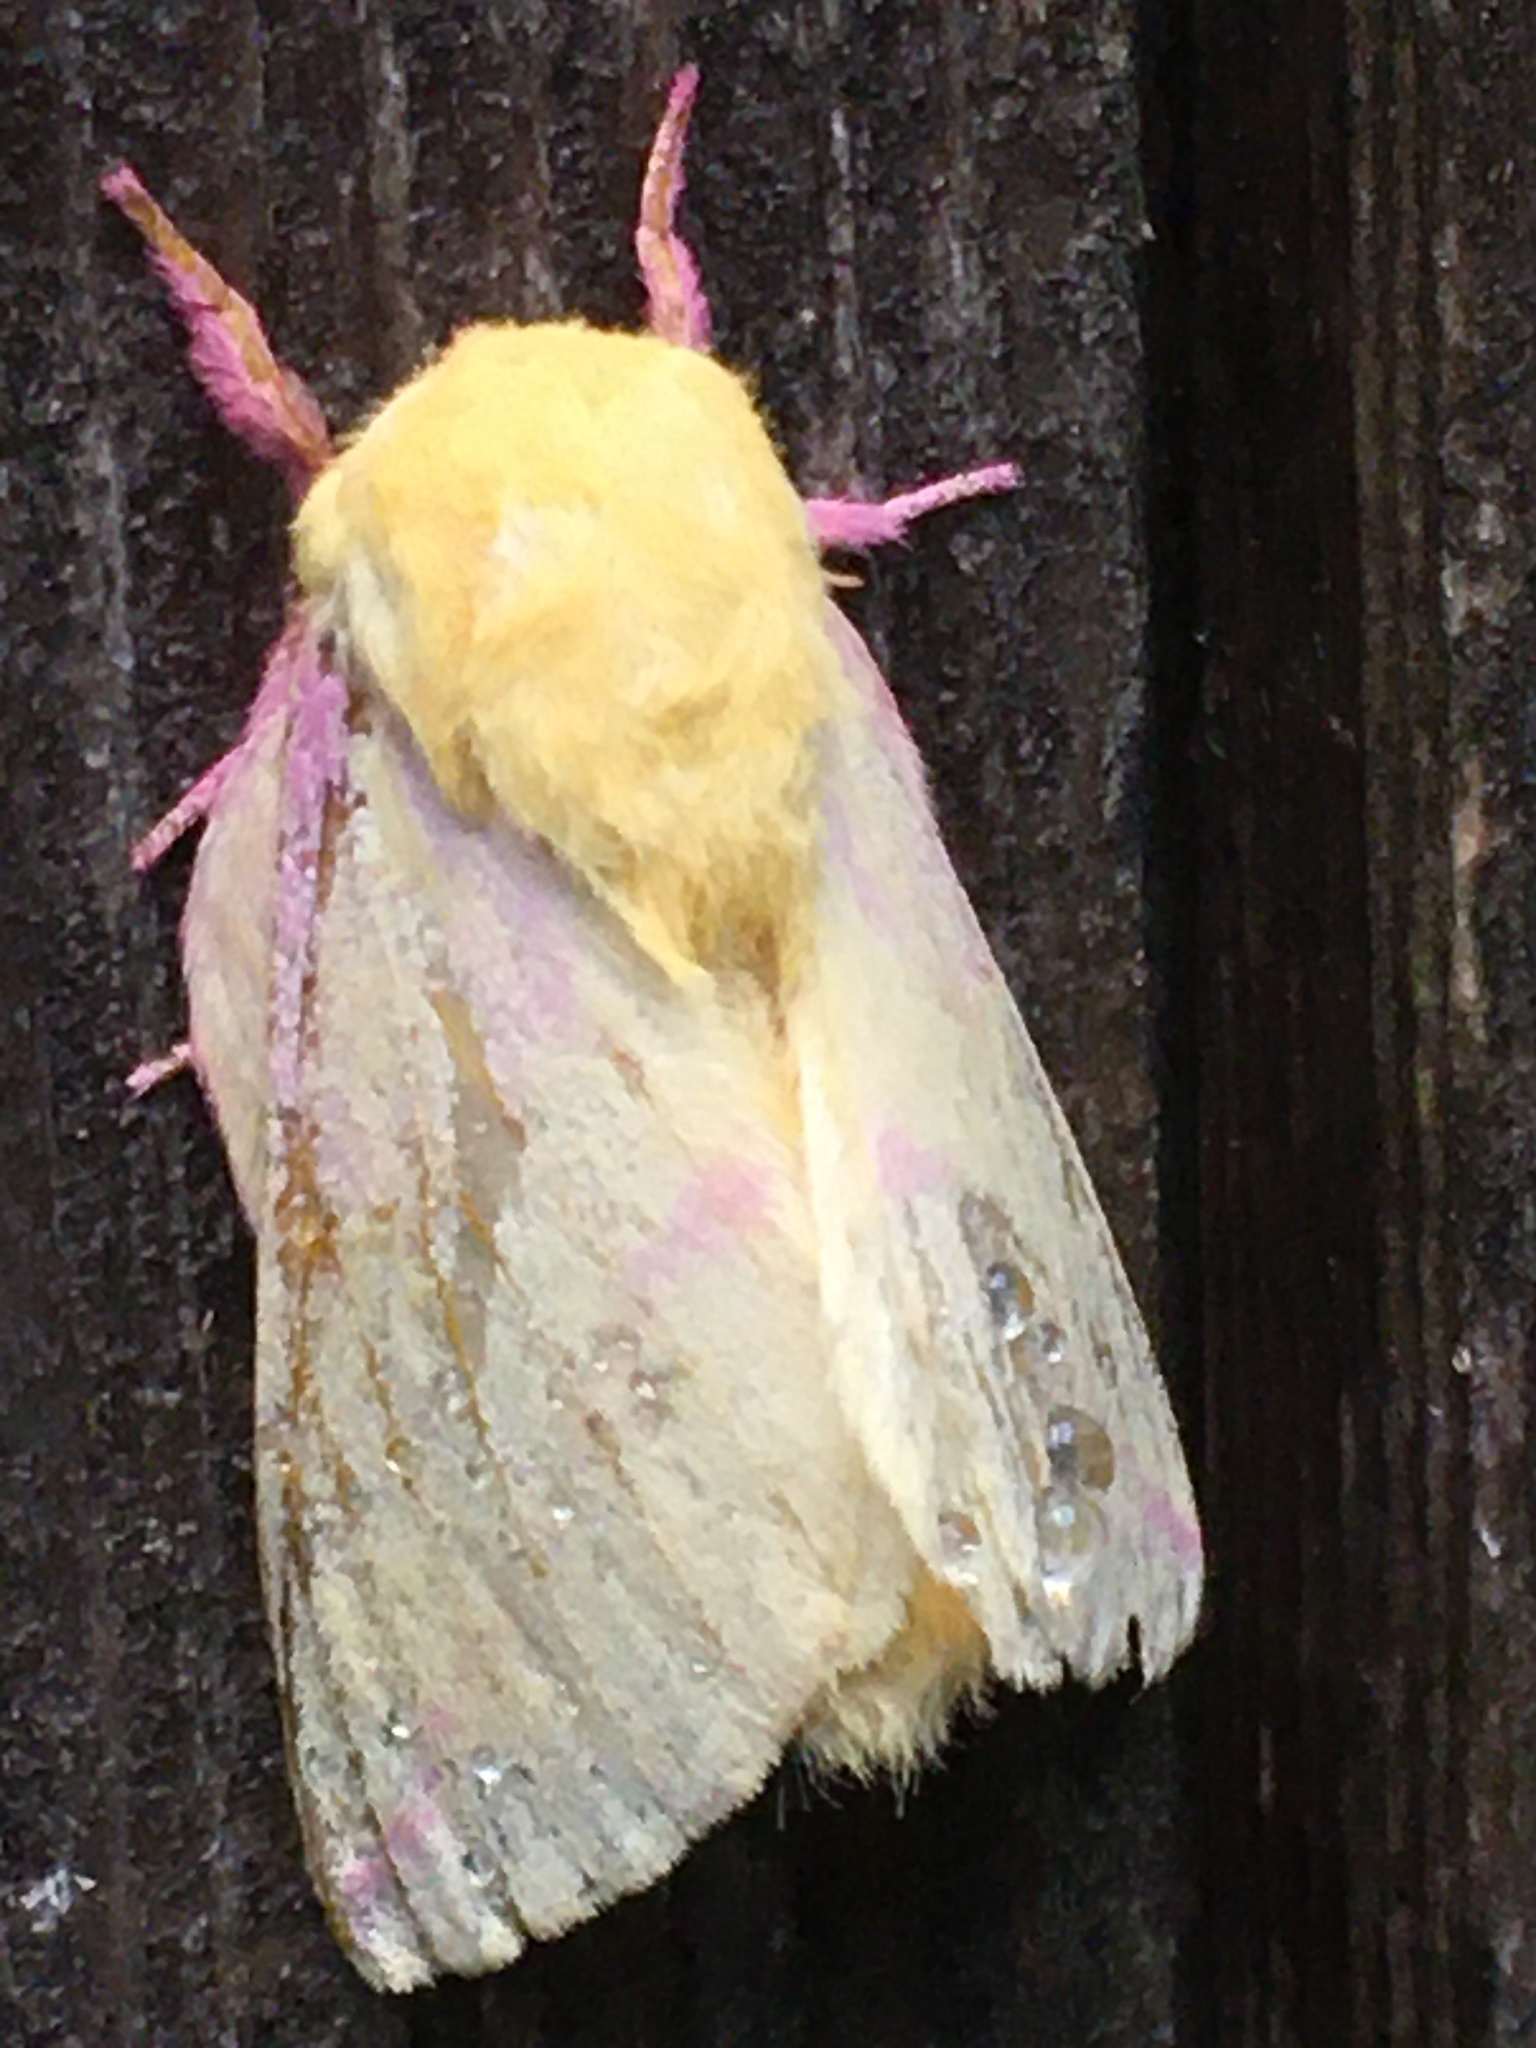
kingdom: Animalia
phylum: Arthropoda
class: Insecta
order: Lepidoptera
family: Saturniidae
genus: Dryocampa
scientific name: Dryocampa rubicunda
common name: Rosy maple moth
